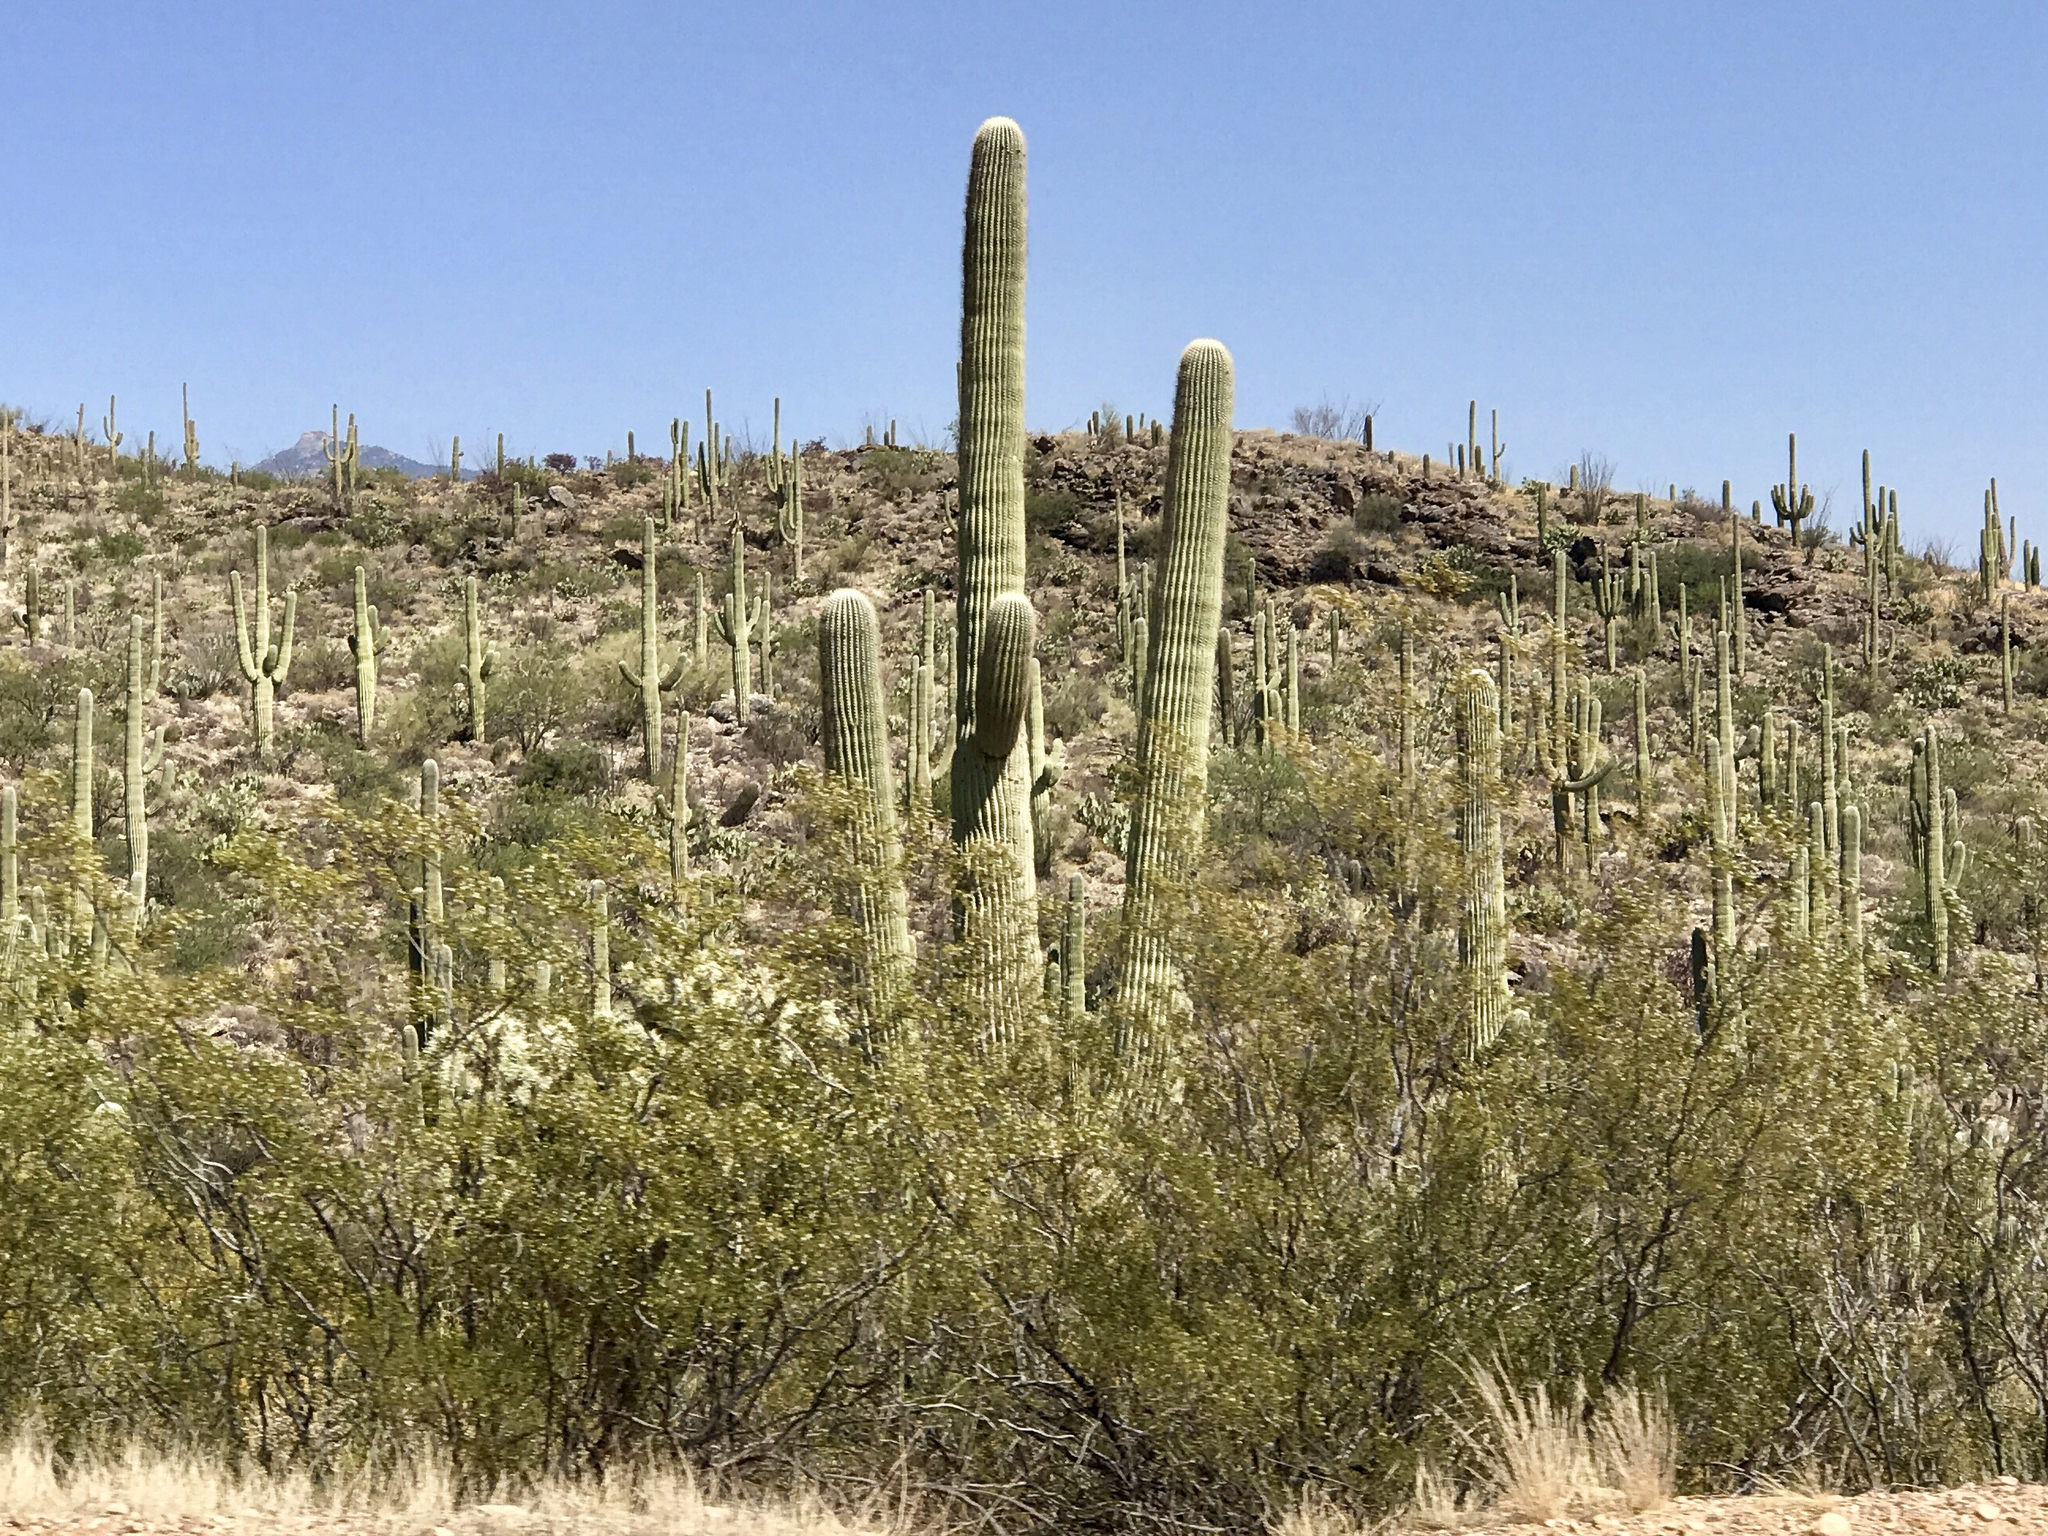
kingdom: Plantae
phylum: Tracheophyta
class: Magnoliopsida
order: Caryophyllales
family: Cactaceae
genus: Carnegiea
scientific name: Carnegiea gigantea
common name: Saguaro
